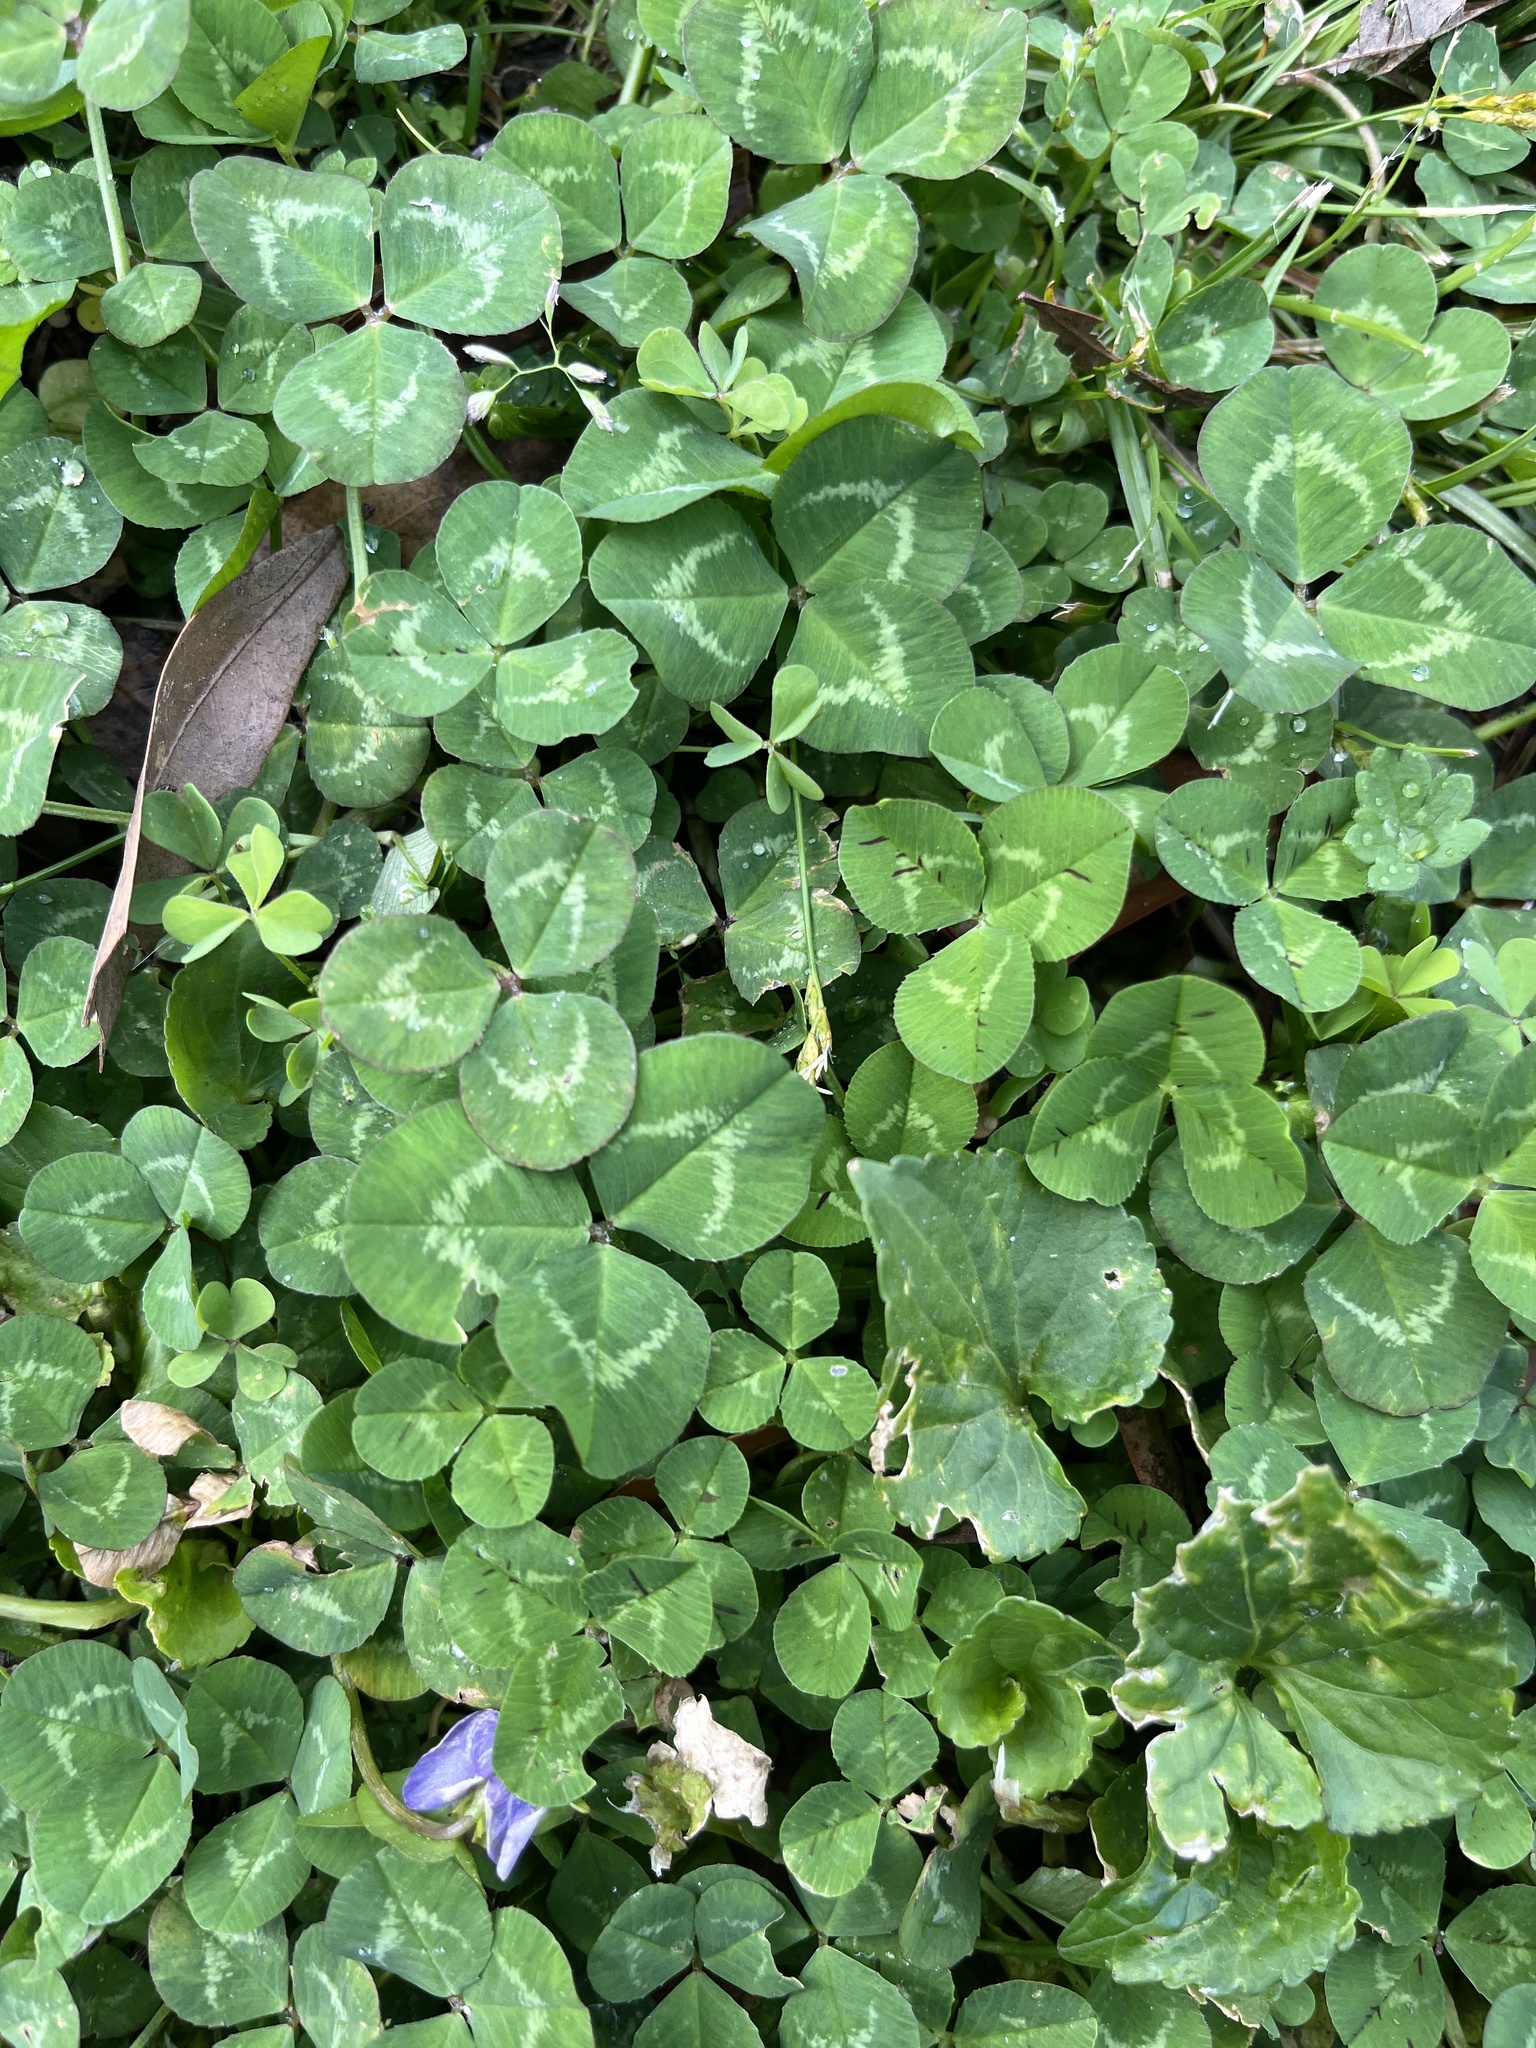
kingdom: Plantae
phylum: Tracheophyta
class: Magnoliopsida
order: Fabales
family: Fabaceae
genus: Trifolium
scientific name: Trifolium repens
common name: White clover
